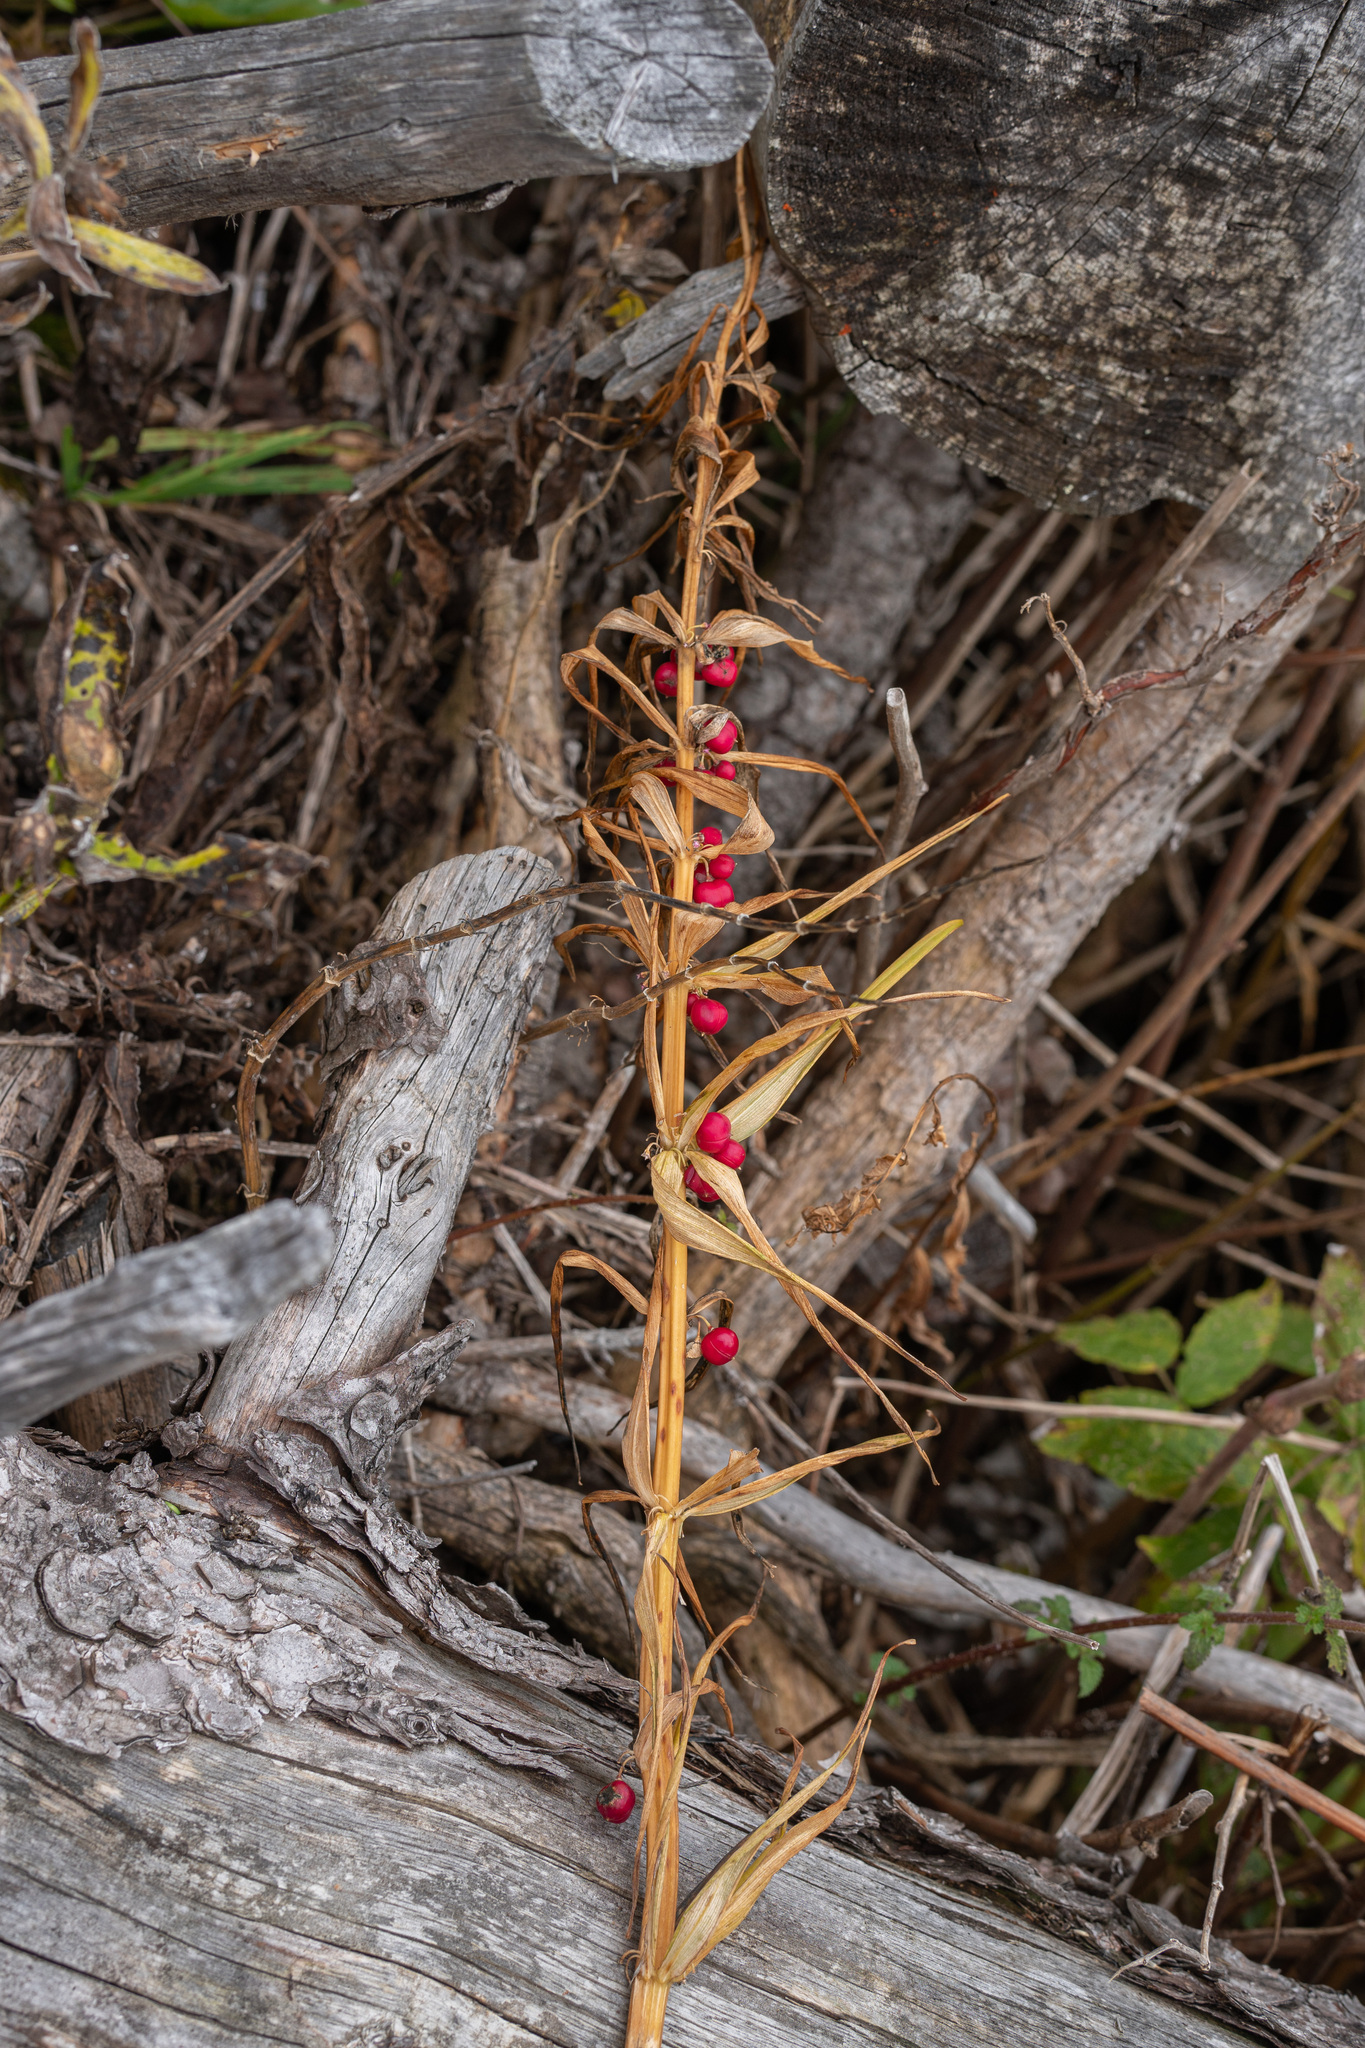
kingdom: Plantae
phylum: Tracheophyta
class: Liliopsida
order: Asparagales
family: Asparagaceae
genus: Polygonatum
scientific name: Polygonatum verticillatum
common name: Whorled solomon's-seal
